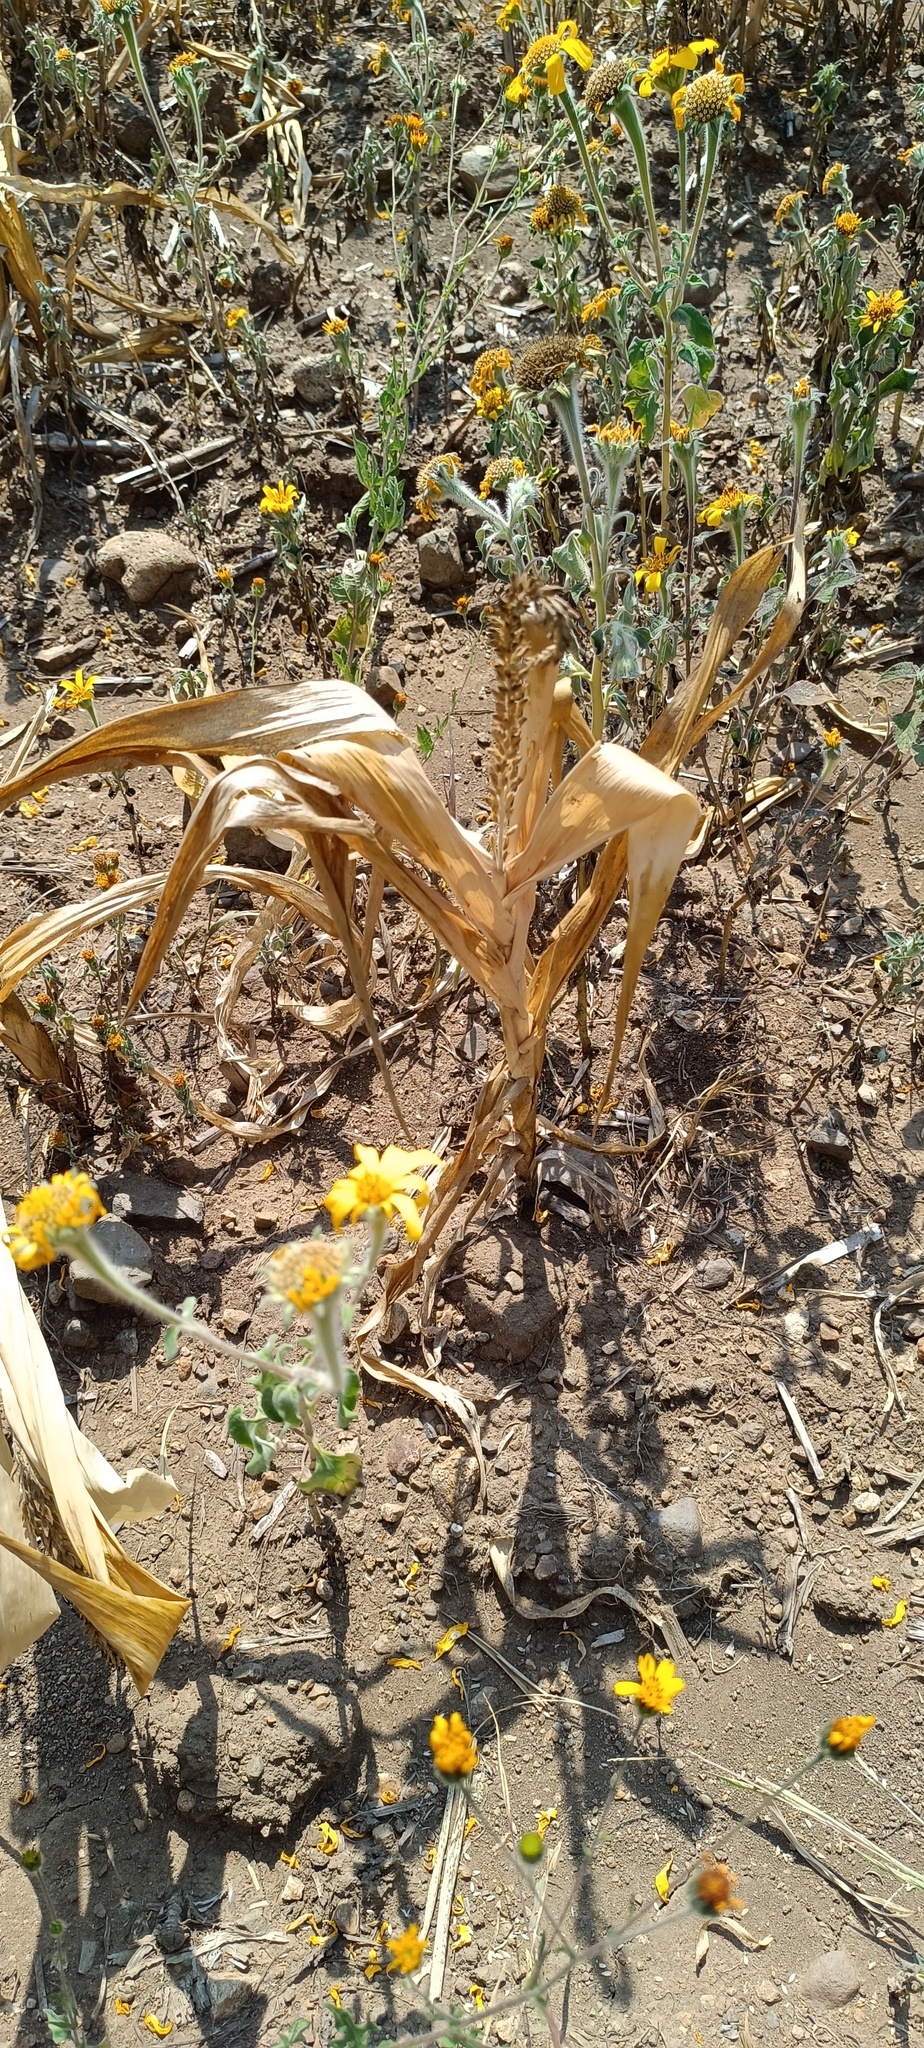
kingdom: Plantae
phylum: Tracheophyta
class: Liliopsida
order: Poales
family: Poaceae
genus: Zea
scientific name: Zea mays
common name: Maize
